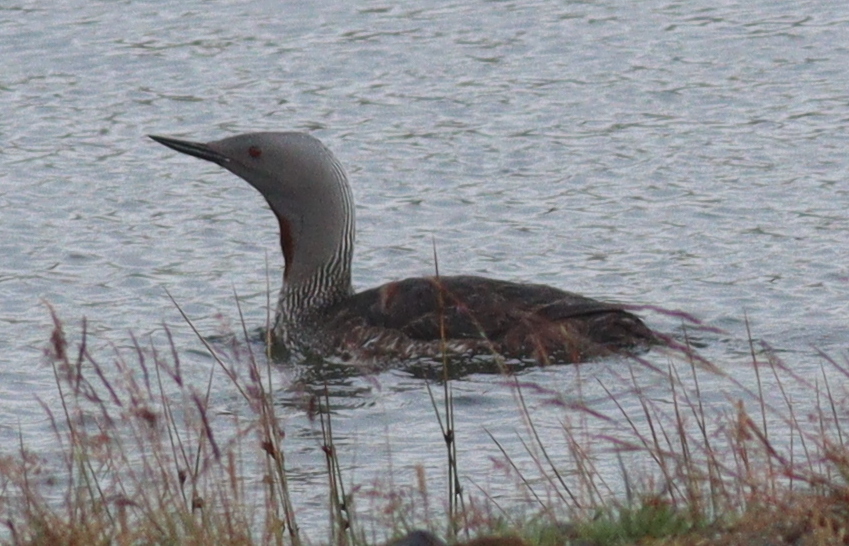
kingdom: Animalia
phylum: Chordata
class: Aves
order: Gaviiformes
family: Gaviidae
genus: Gavia
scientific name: Gavia stellata
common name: Red-throated loon
